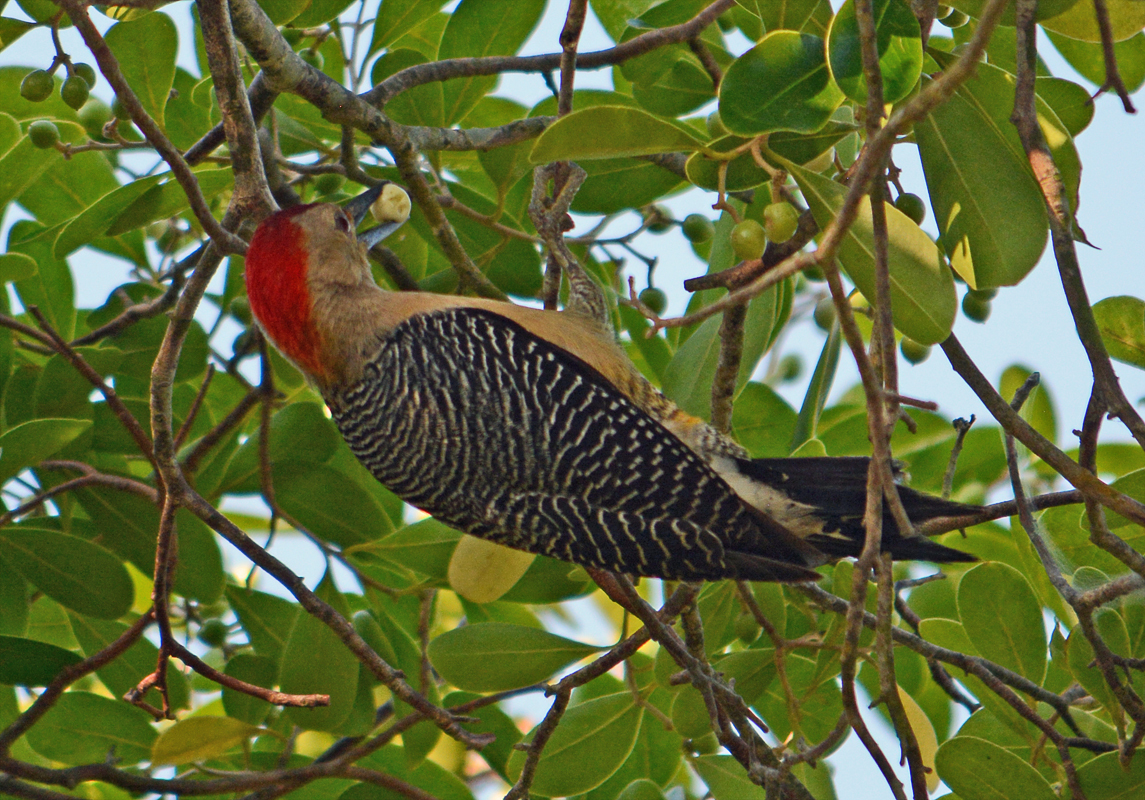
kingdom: Animalia
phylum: Chordata
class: Aves
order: Piciformes
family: Picidae
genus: Melanerpes
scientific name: Melanerpes aurifrons
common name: Golden-fronted woodpecker
